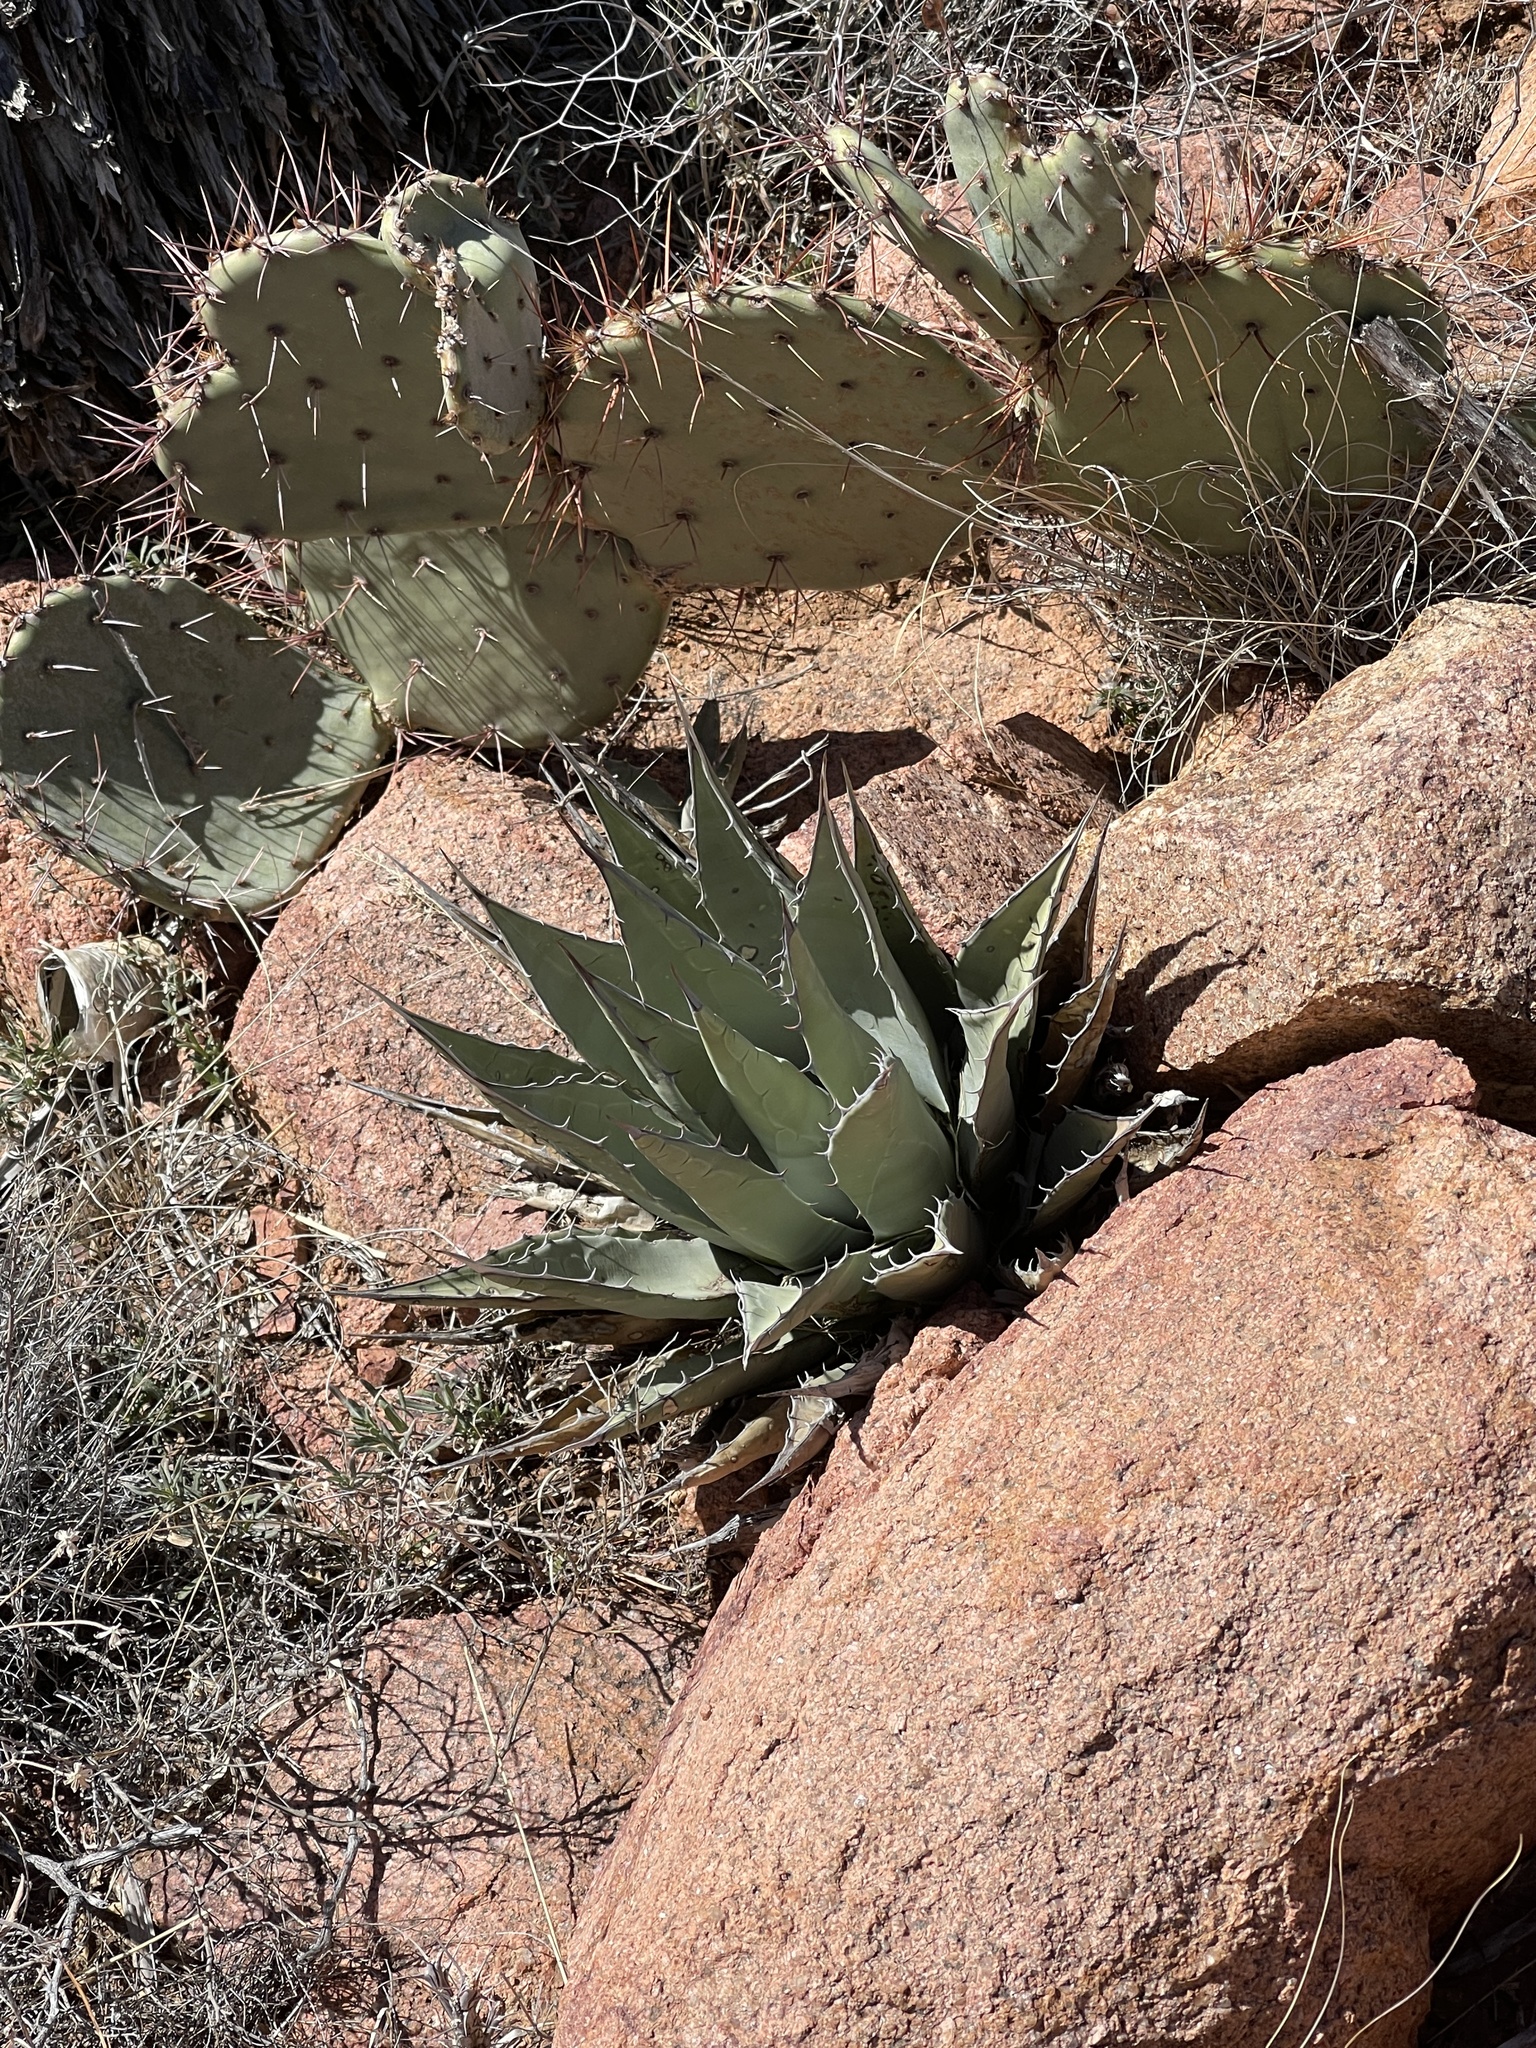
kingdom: Plantae
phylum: Tracheophyta
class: Liliopsida
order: Asparagales
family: Asparagaceae
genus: Agave
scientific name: Agave parryi
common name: Parry's agave
